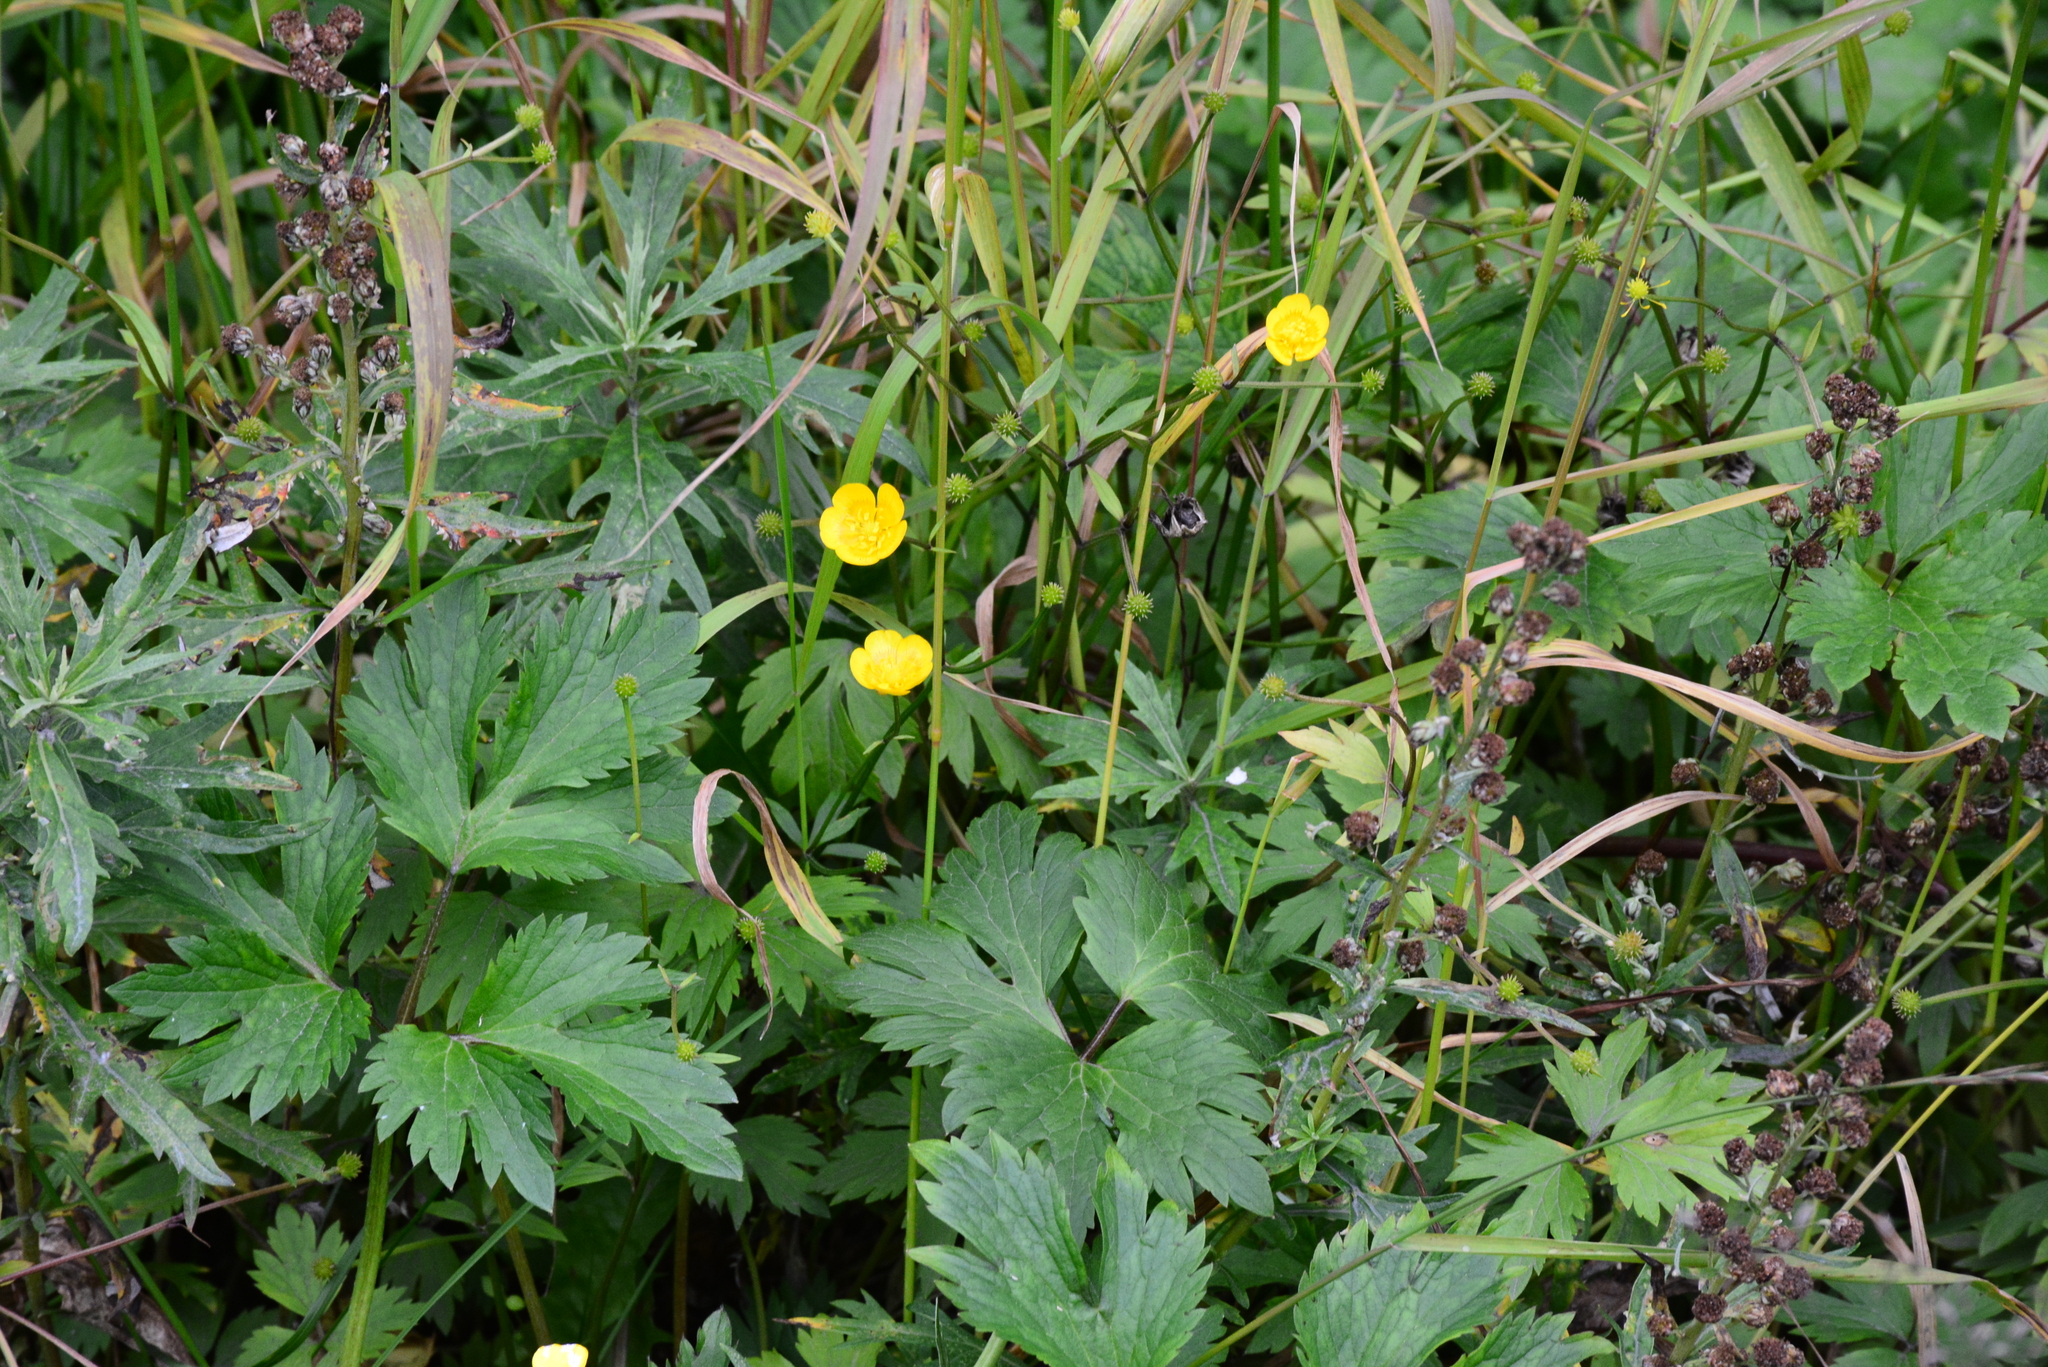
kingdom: Plantae
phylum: Tracheophyta
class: Magnoliopsida
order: Ranunculales
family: Ranunculaceae
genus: Ranunculus
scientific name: Ranunculus repens
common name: Creeping buttercup
